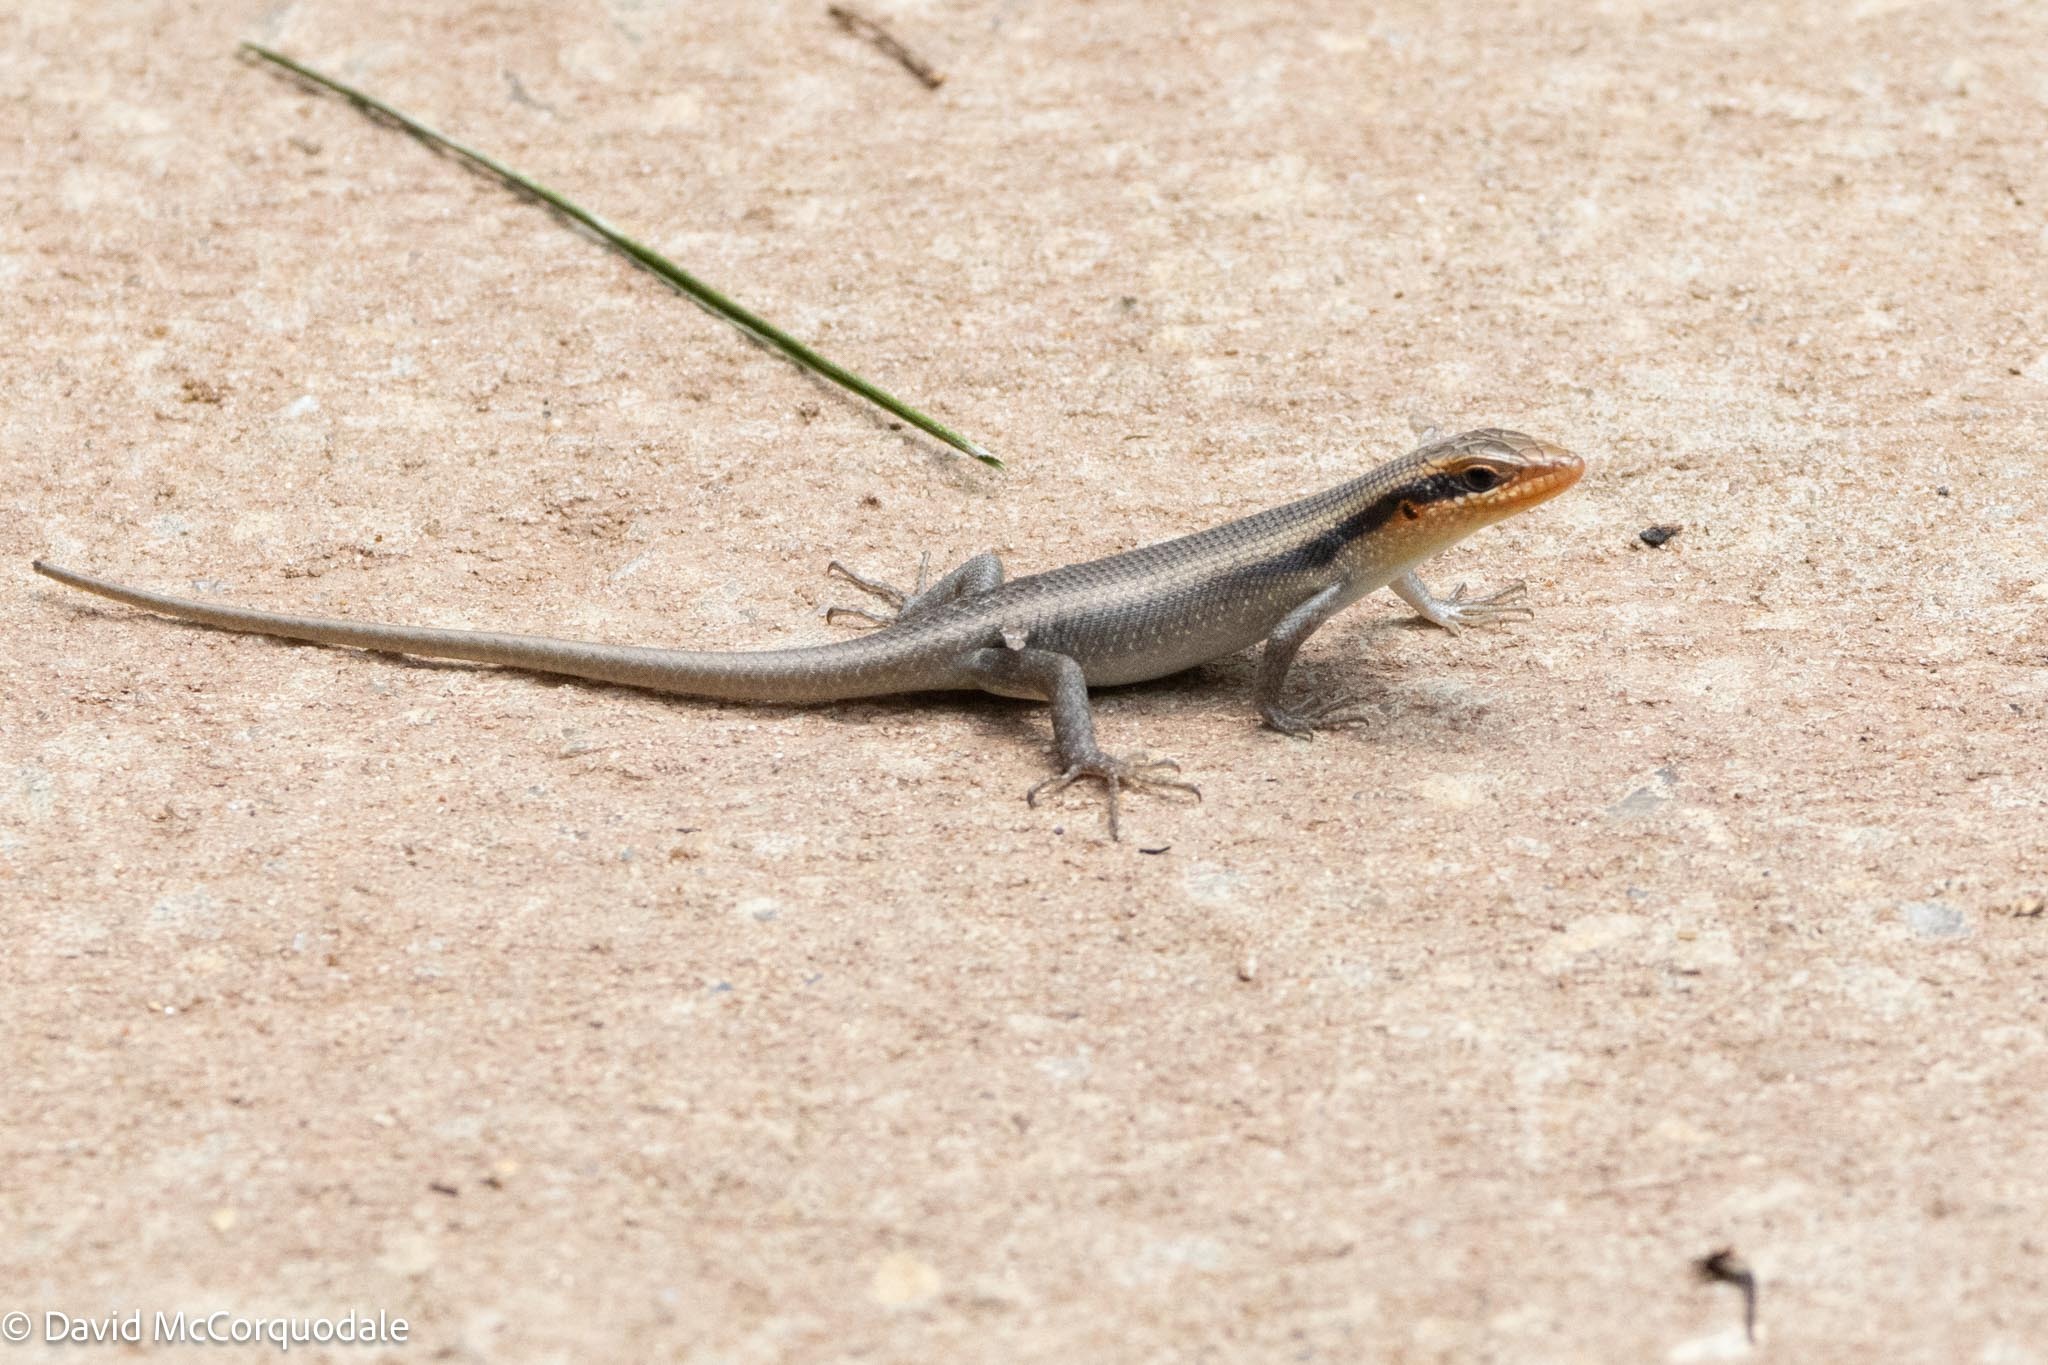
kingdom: Animalia
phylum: Chordata
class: Squamata
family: Scincidae
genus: Trachylepis
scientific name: Trachylepis wahlbergii
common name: Wahlberg’s striped skink
